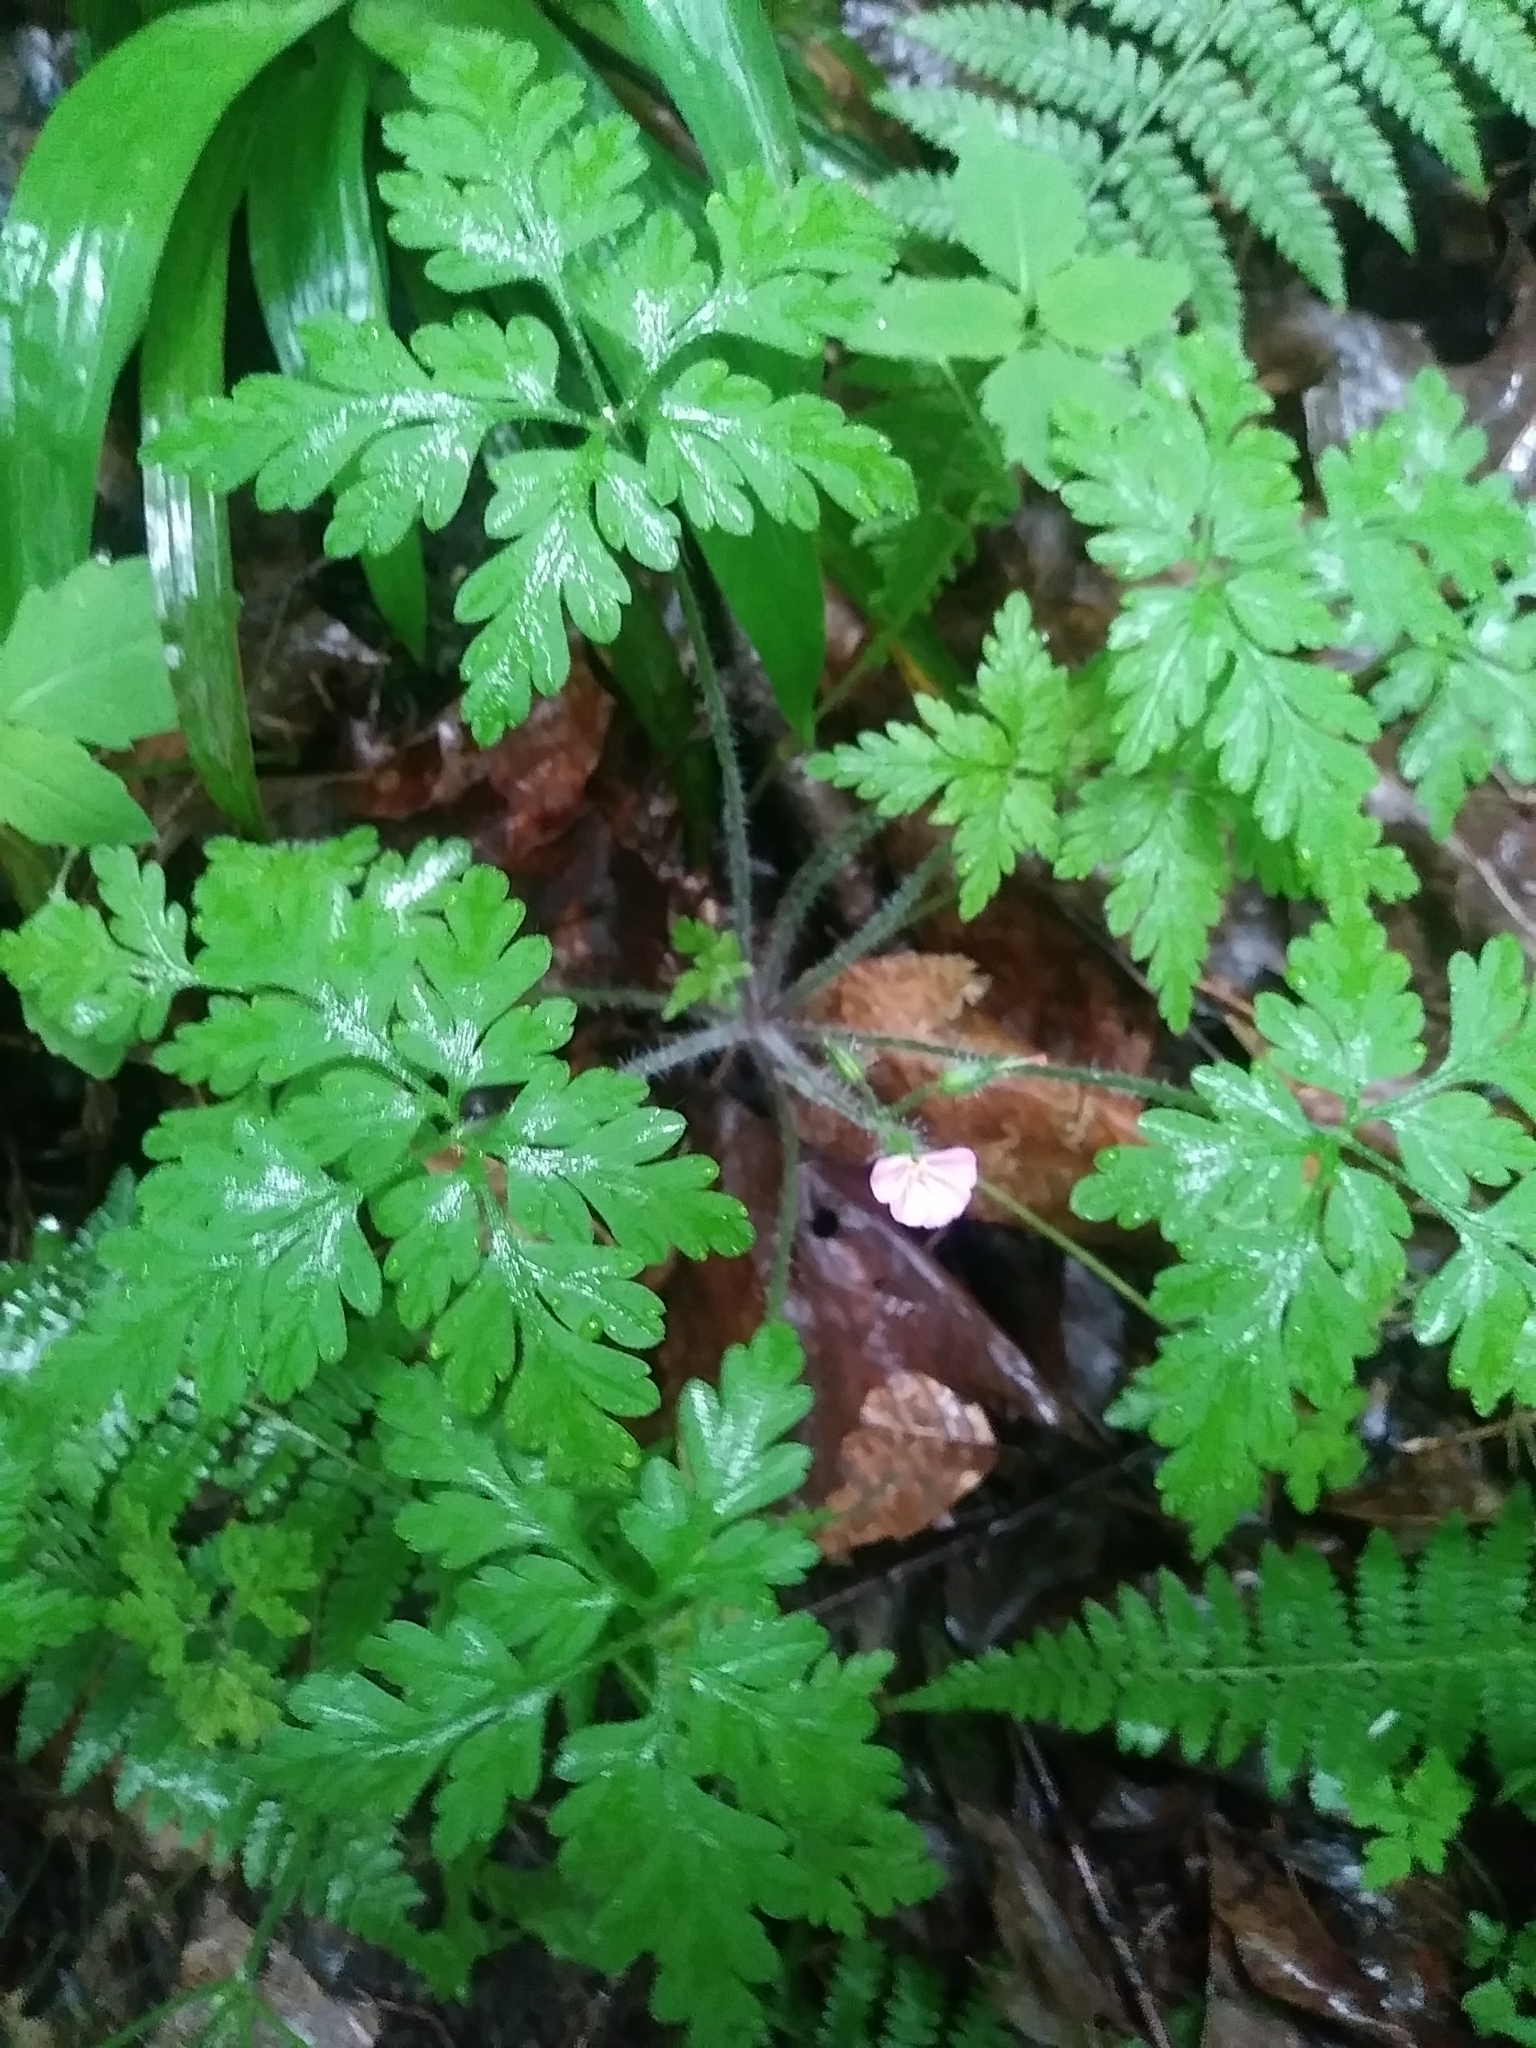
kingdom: Plantae
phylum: Tracheophyta
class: Magnoliopsida
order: Geraniales
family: Geraniaceae
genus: Geranium
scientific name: Geranium robertianum
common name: Herb-robert
